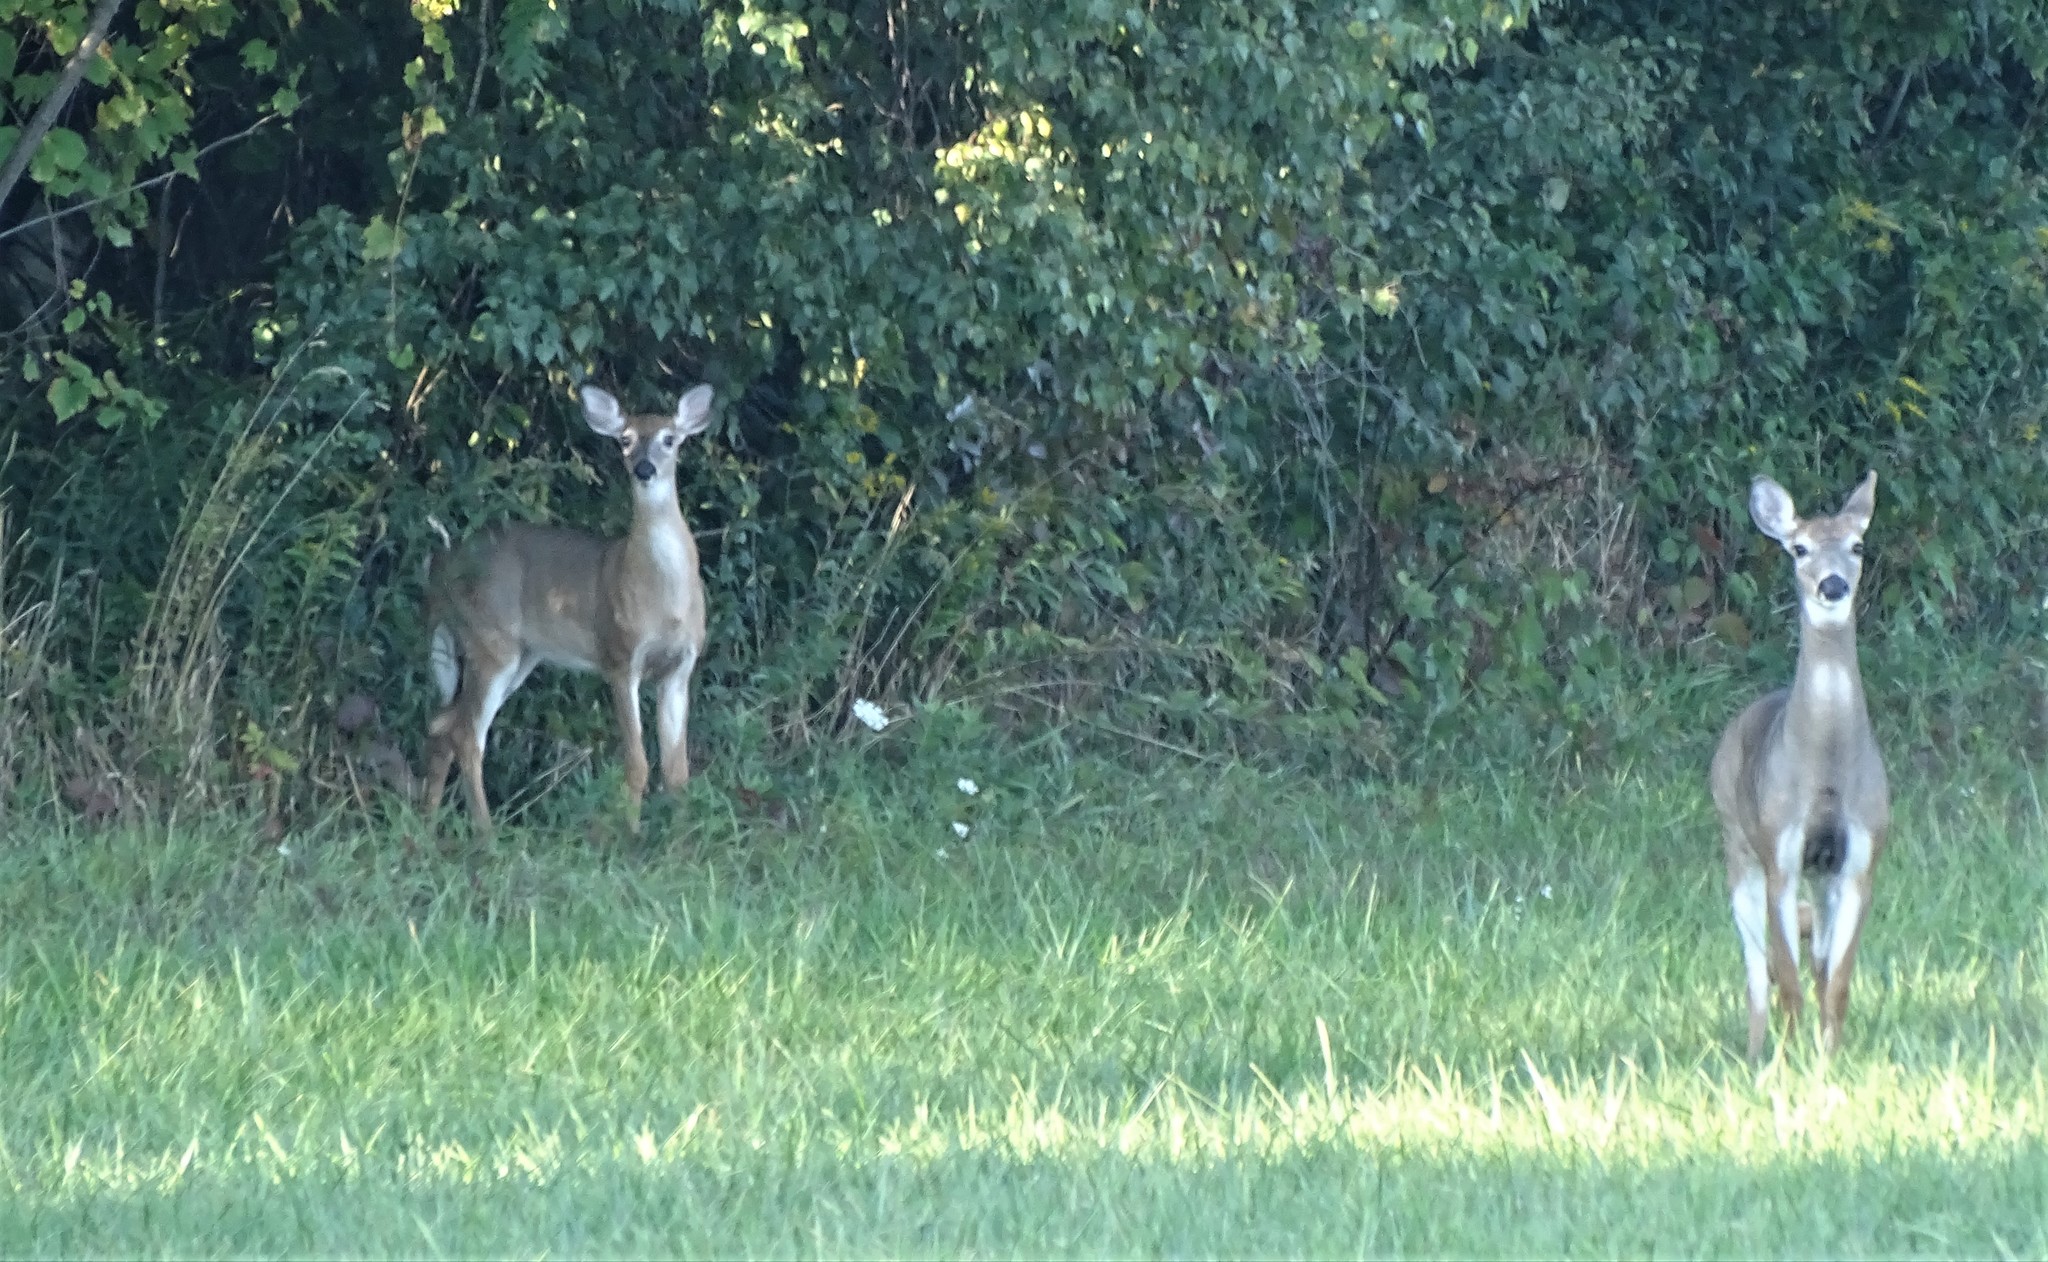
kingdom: Animalia
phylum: Chordata
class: Mammalia
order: Artiodactyla
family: Cervidae
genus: Odocoileus
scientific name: Odocoileus virginianus
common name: White-tailed deer
